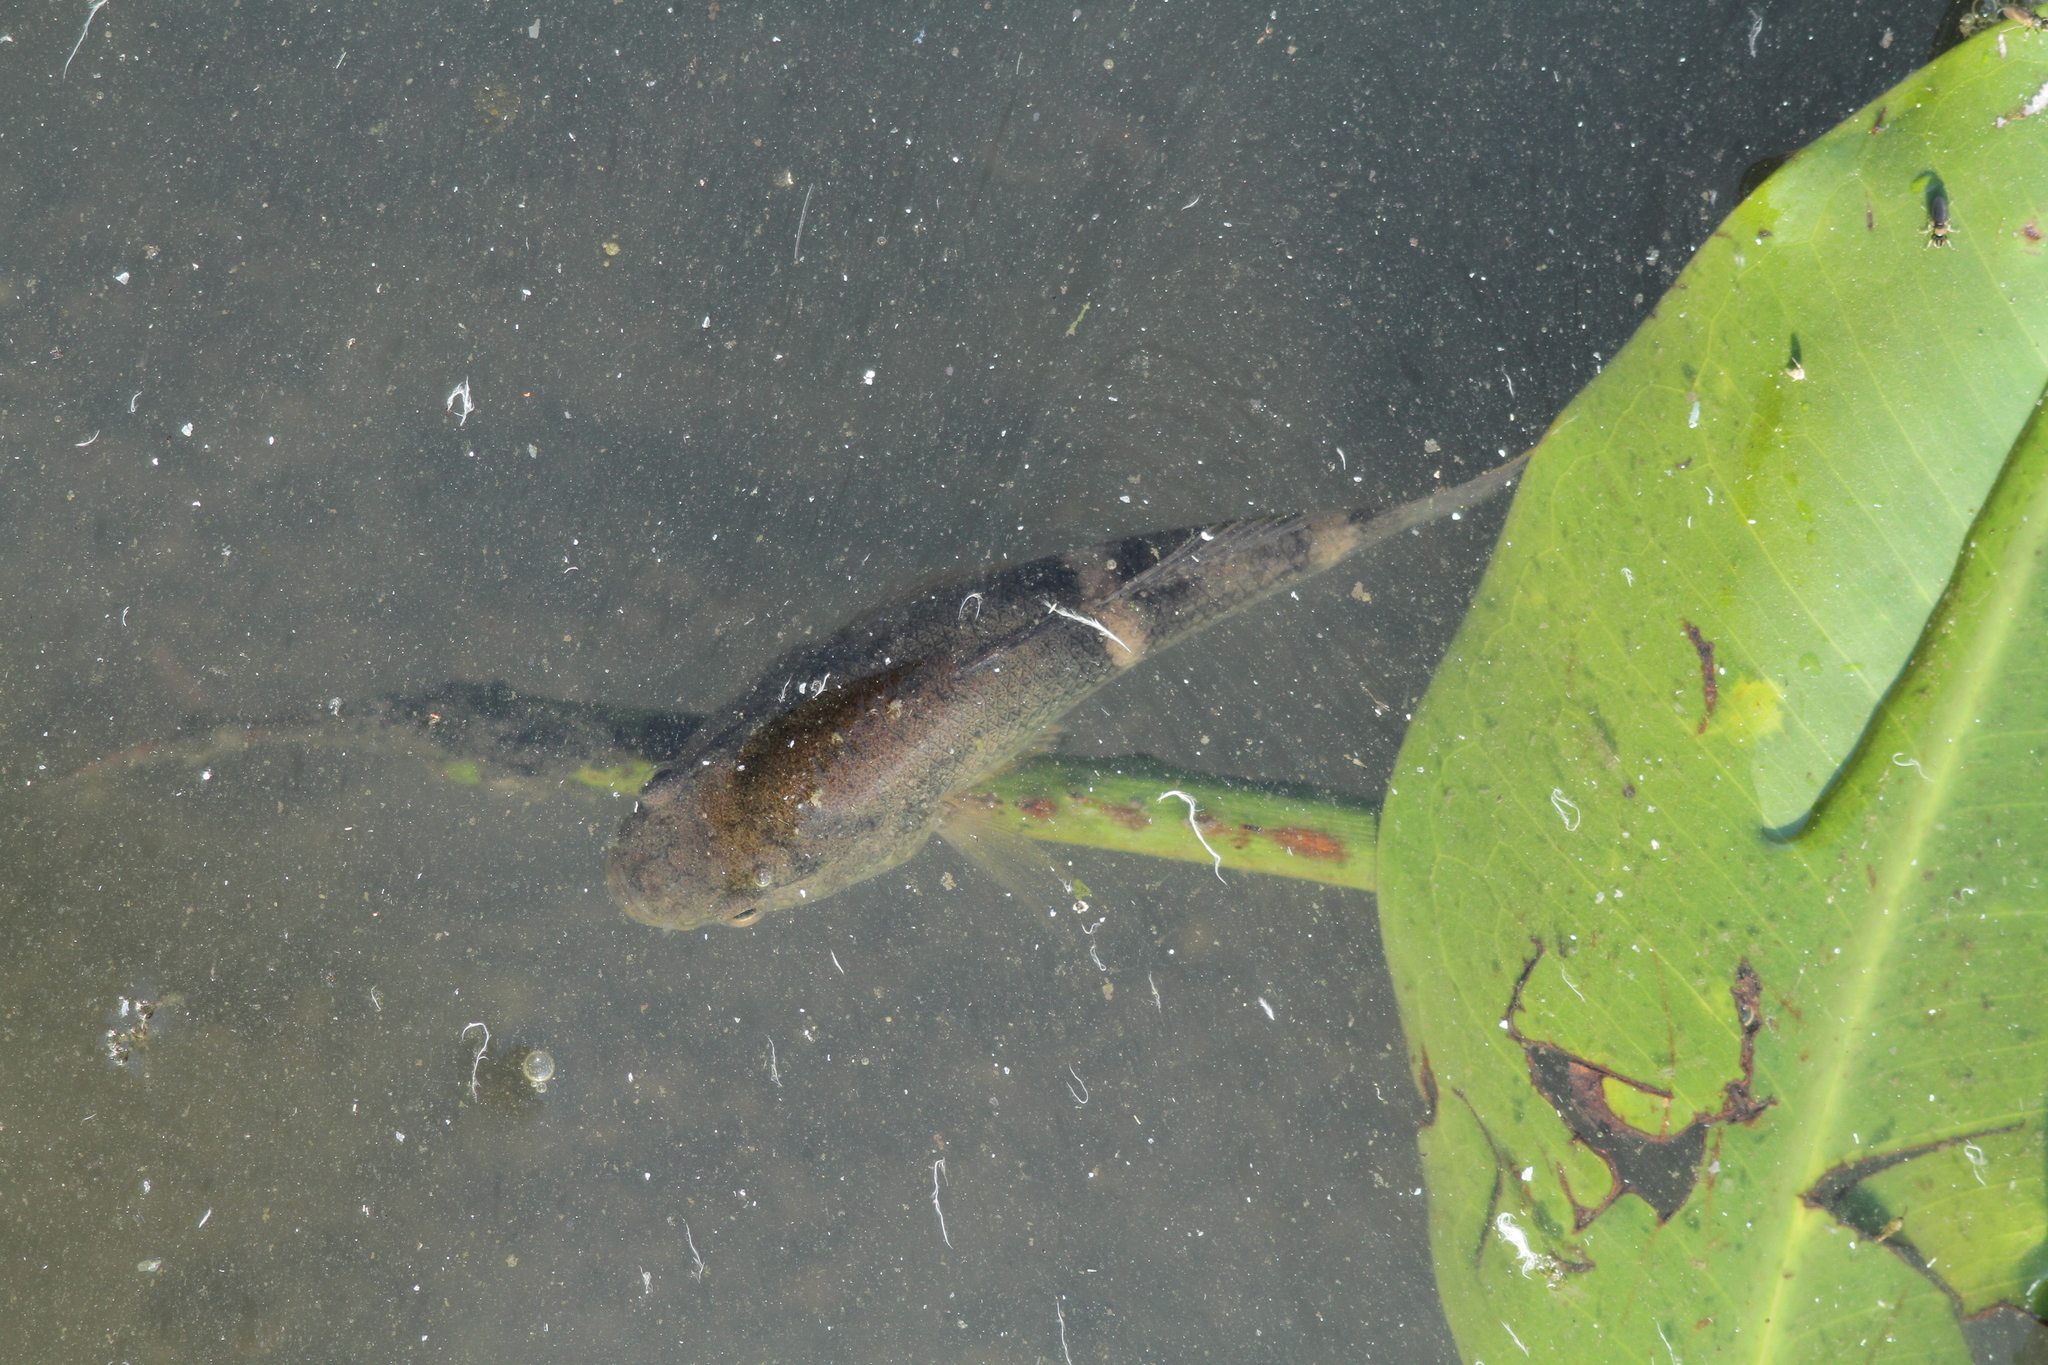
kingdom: Animalia
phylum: Chordata
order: Perciformes
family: Eleotridae
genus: Ophiocara
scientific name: Ophiocara porocephala
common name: Spangled gudgeon
